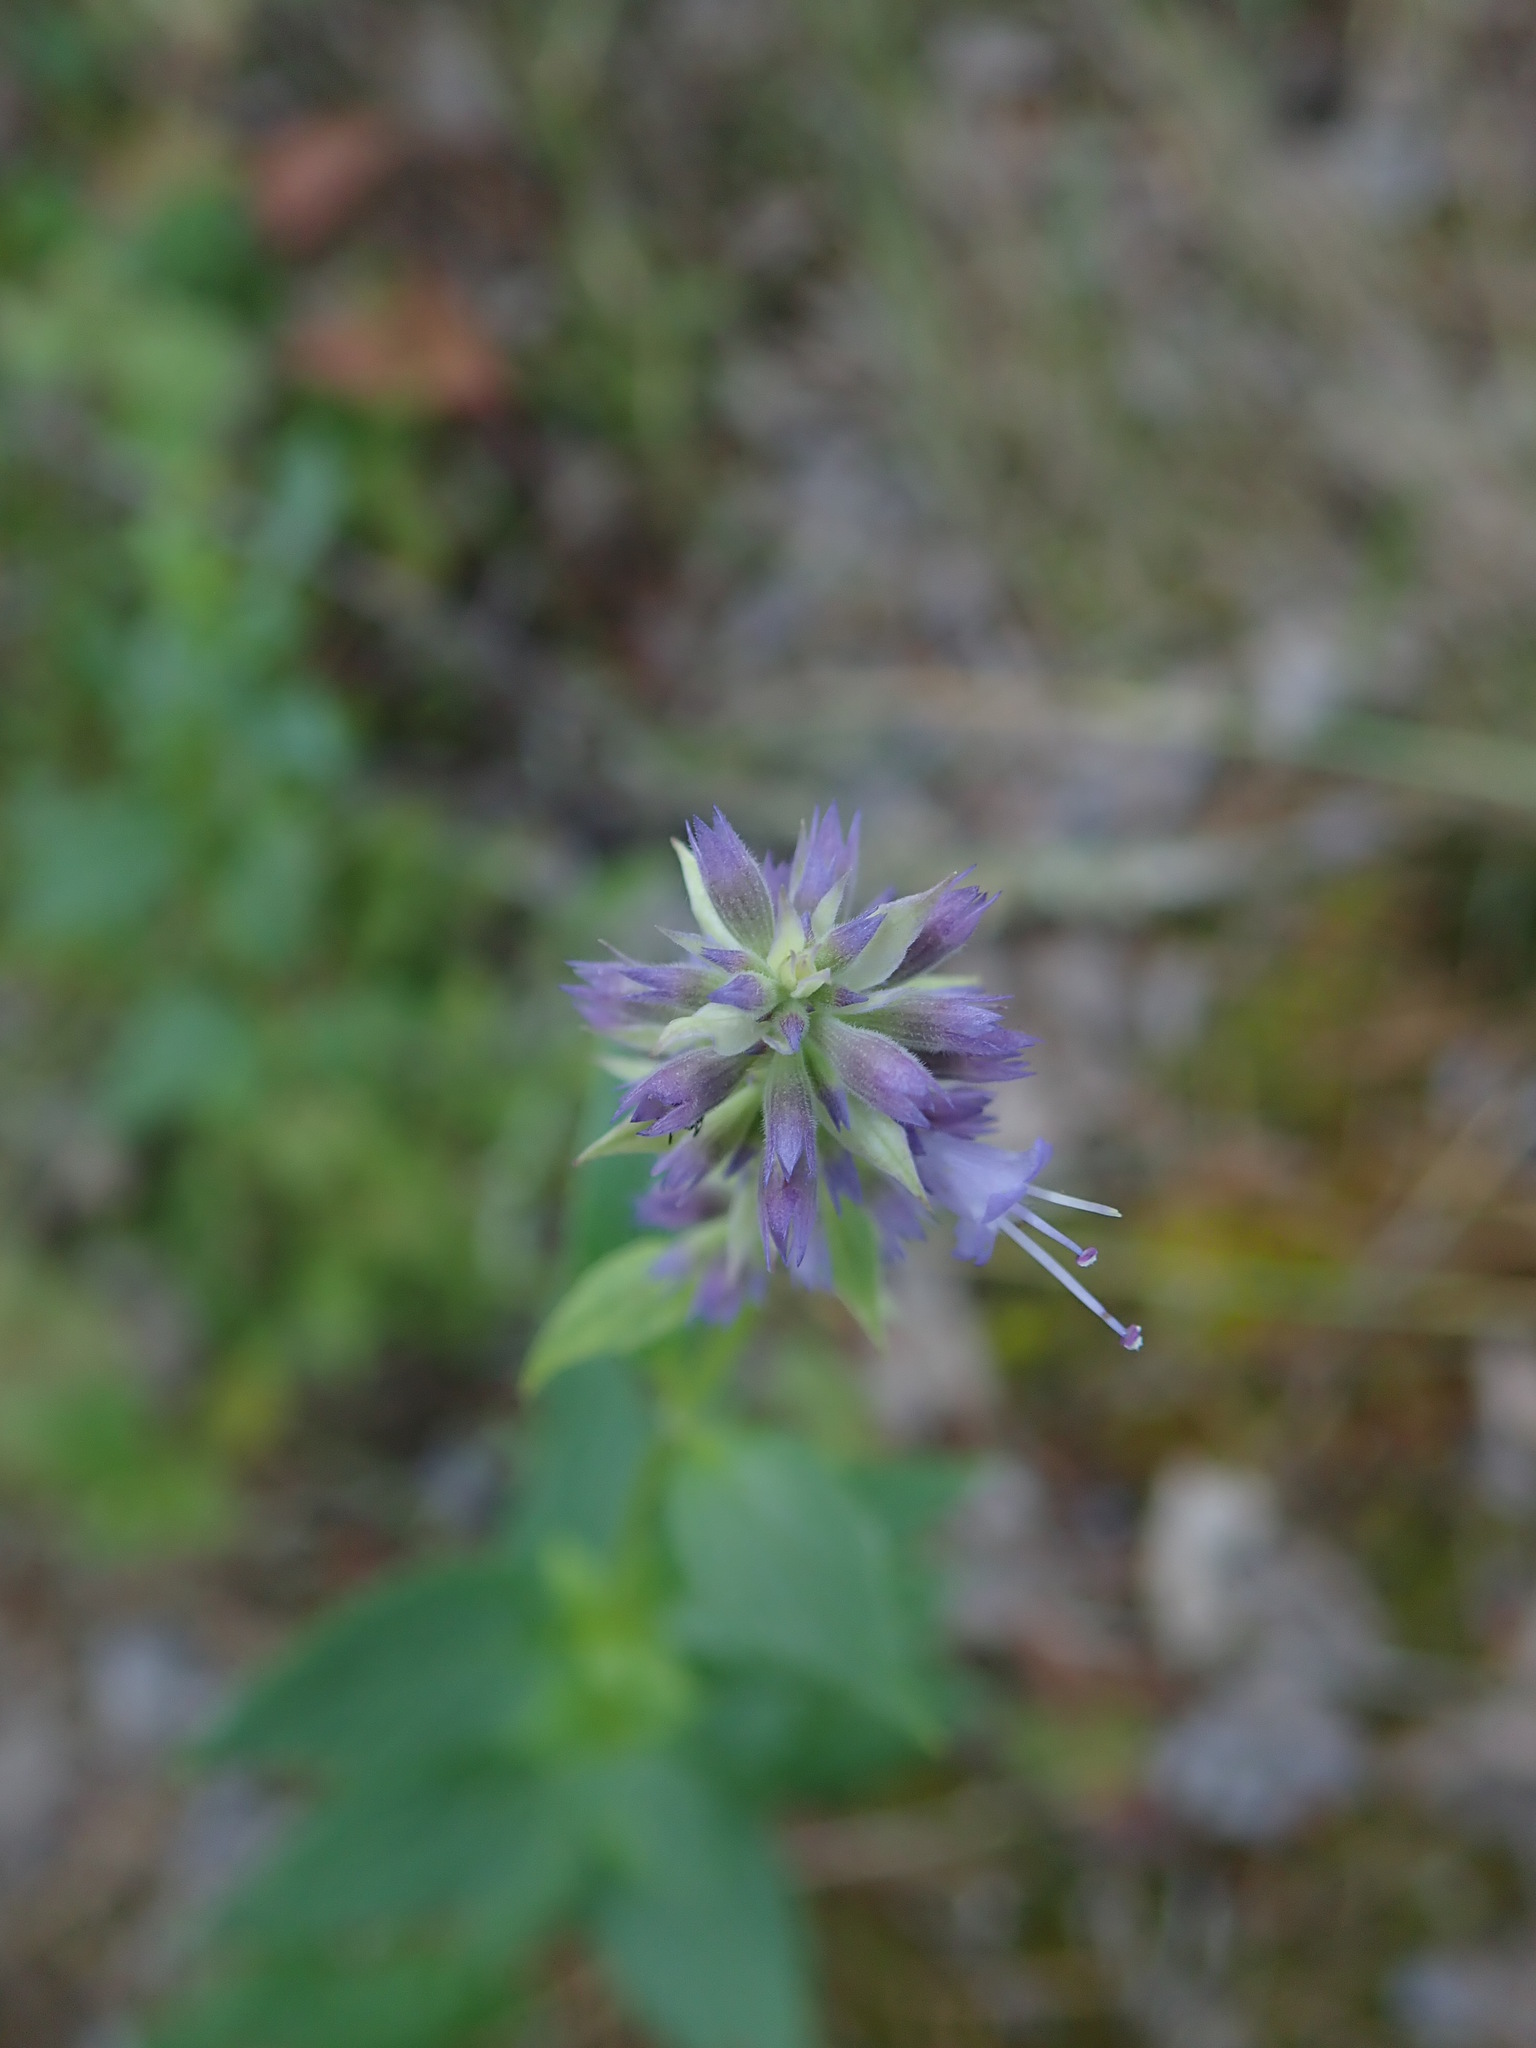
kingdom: Plantae
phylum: Tracheophyta
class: Magnoliopsida
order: Lamiales
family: Lamiaceae
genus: Agastache
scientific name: Agastache foeniculum
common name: Anise hyssop
